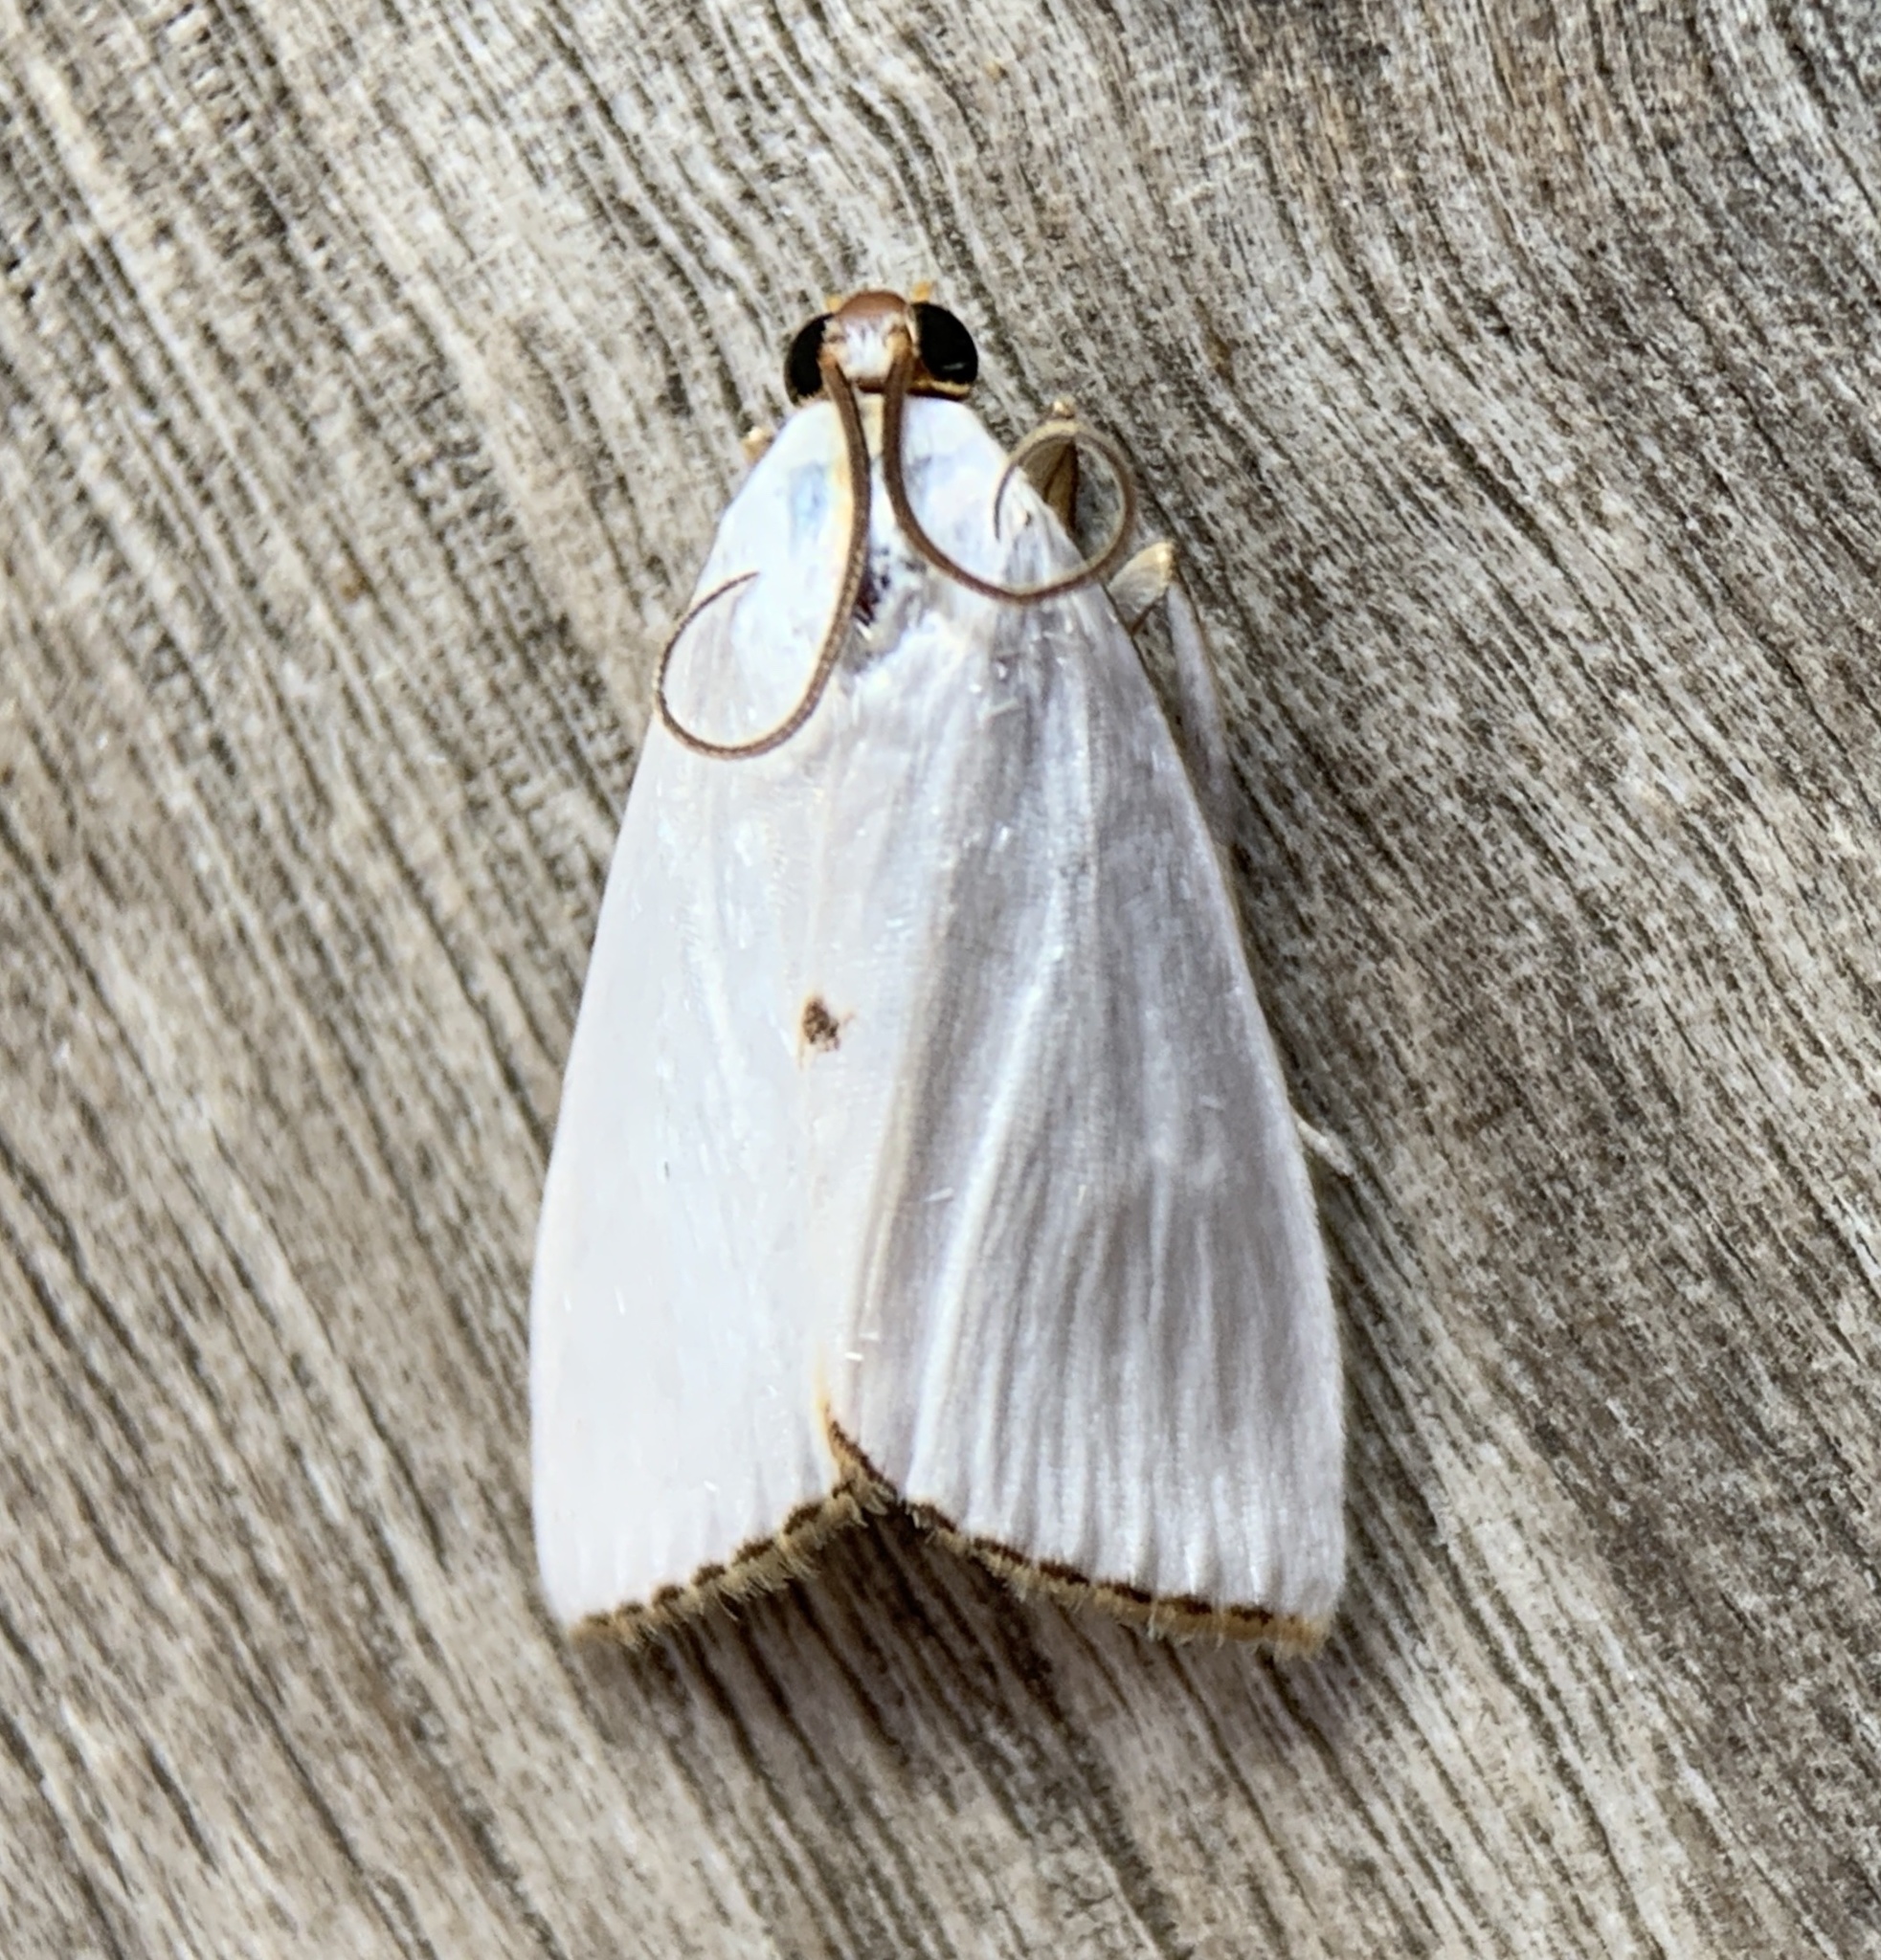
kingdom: Animalia
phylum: Arthropoda
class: Insecta
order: Lepidoptera
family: Crambidae
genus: Argyria
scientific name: Argyria nivalis
